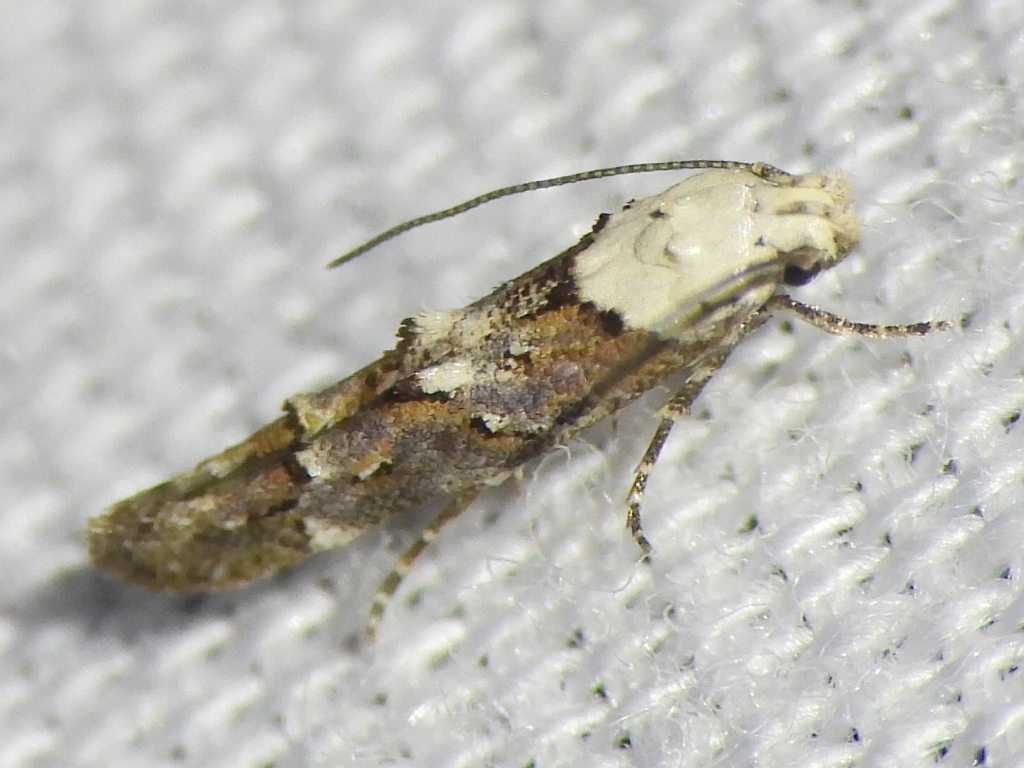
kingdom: Animalia
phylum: Arthropoda
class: Insecta
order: Lepidoptera
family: Momphidae
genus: Mompha
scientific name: Mompha albocapitella
